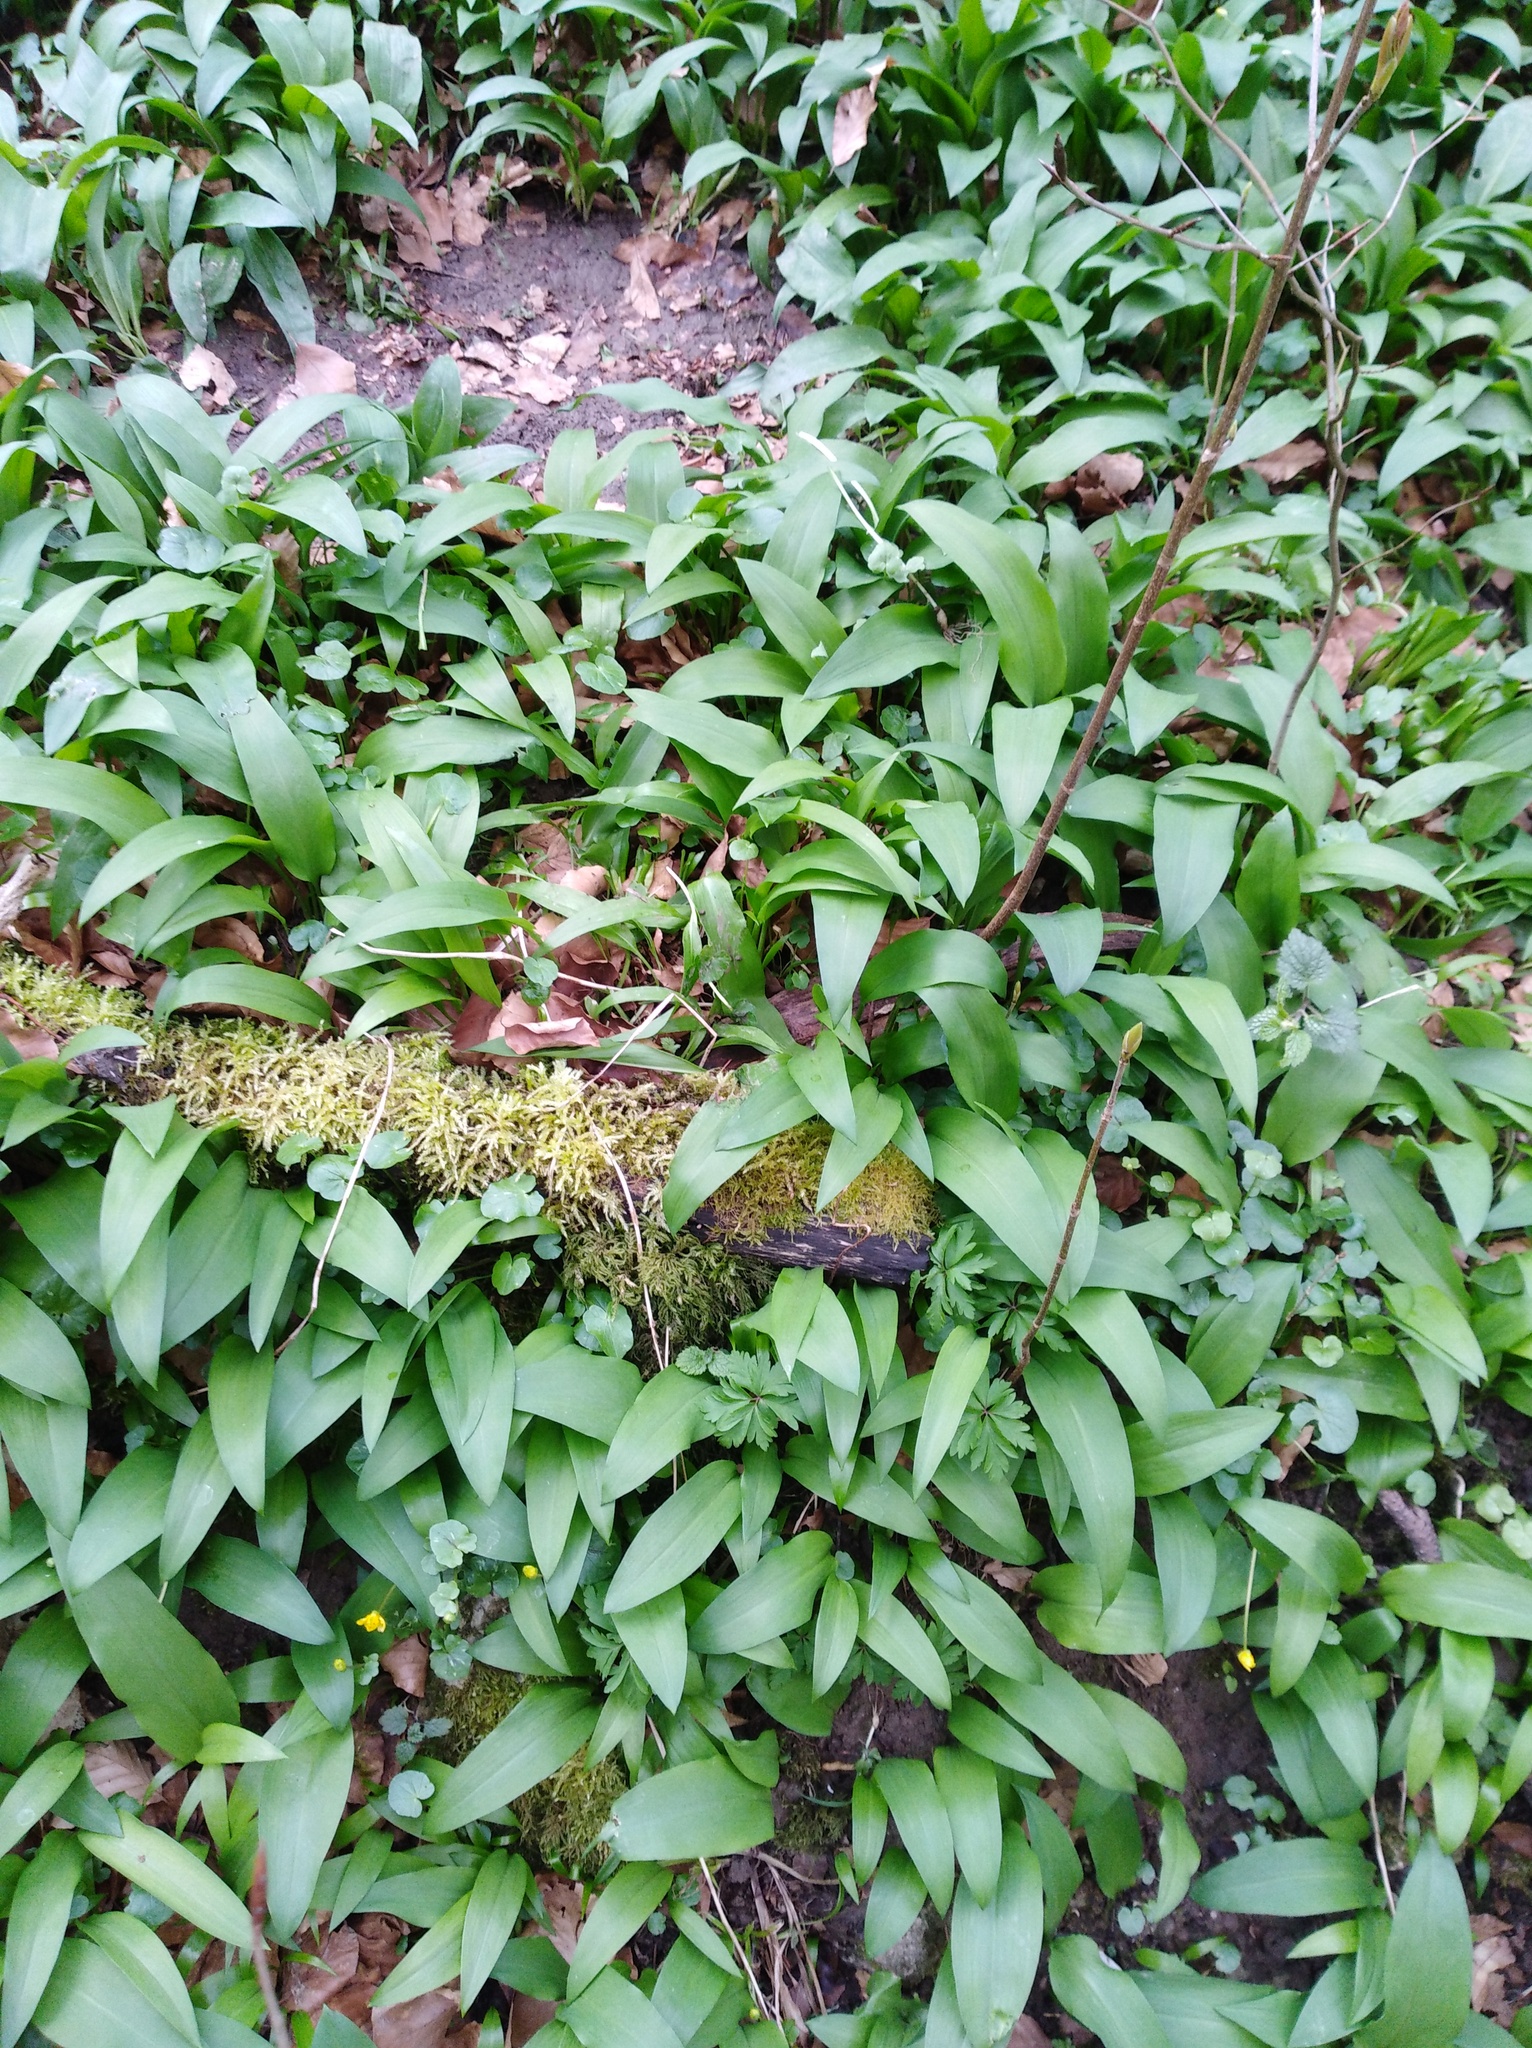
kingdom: Plantae
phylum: Tracheophyta
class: Liliopsida
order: Asparagales
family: Amaryllidaceae
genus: Allium
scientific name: Allium ursinum
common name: Ramsons
